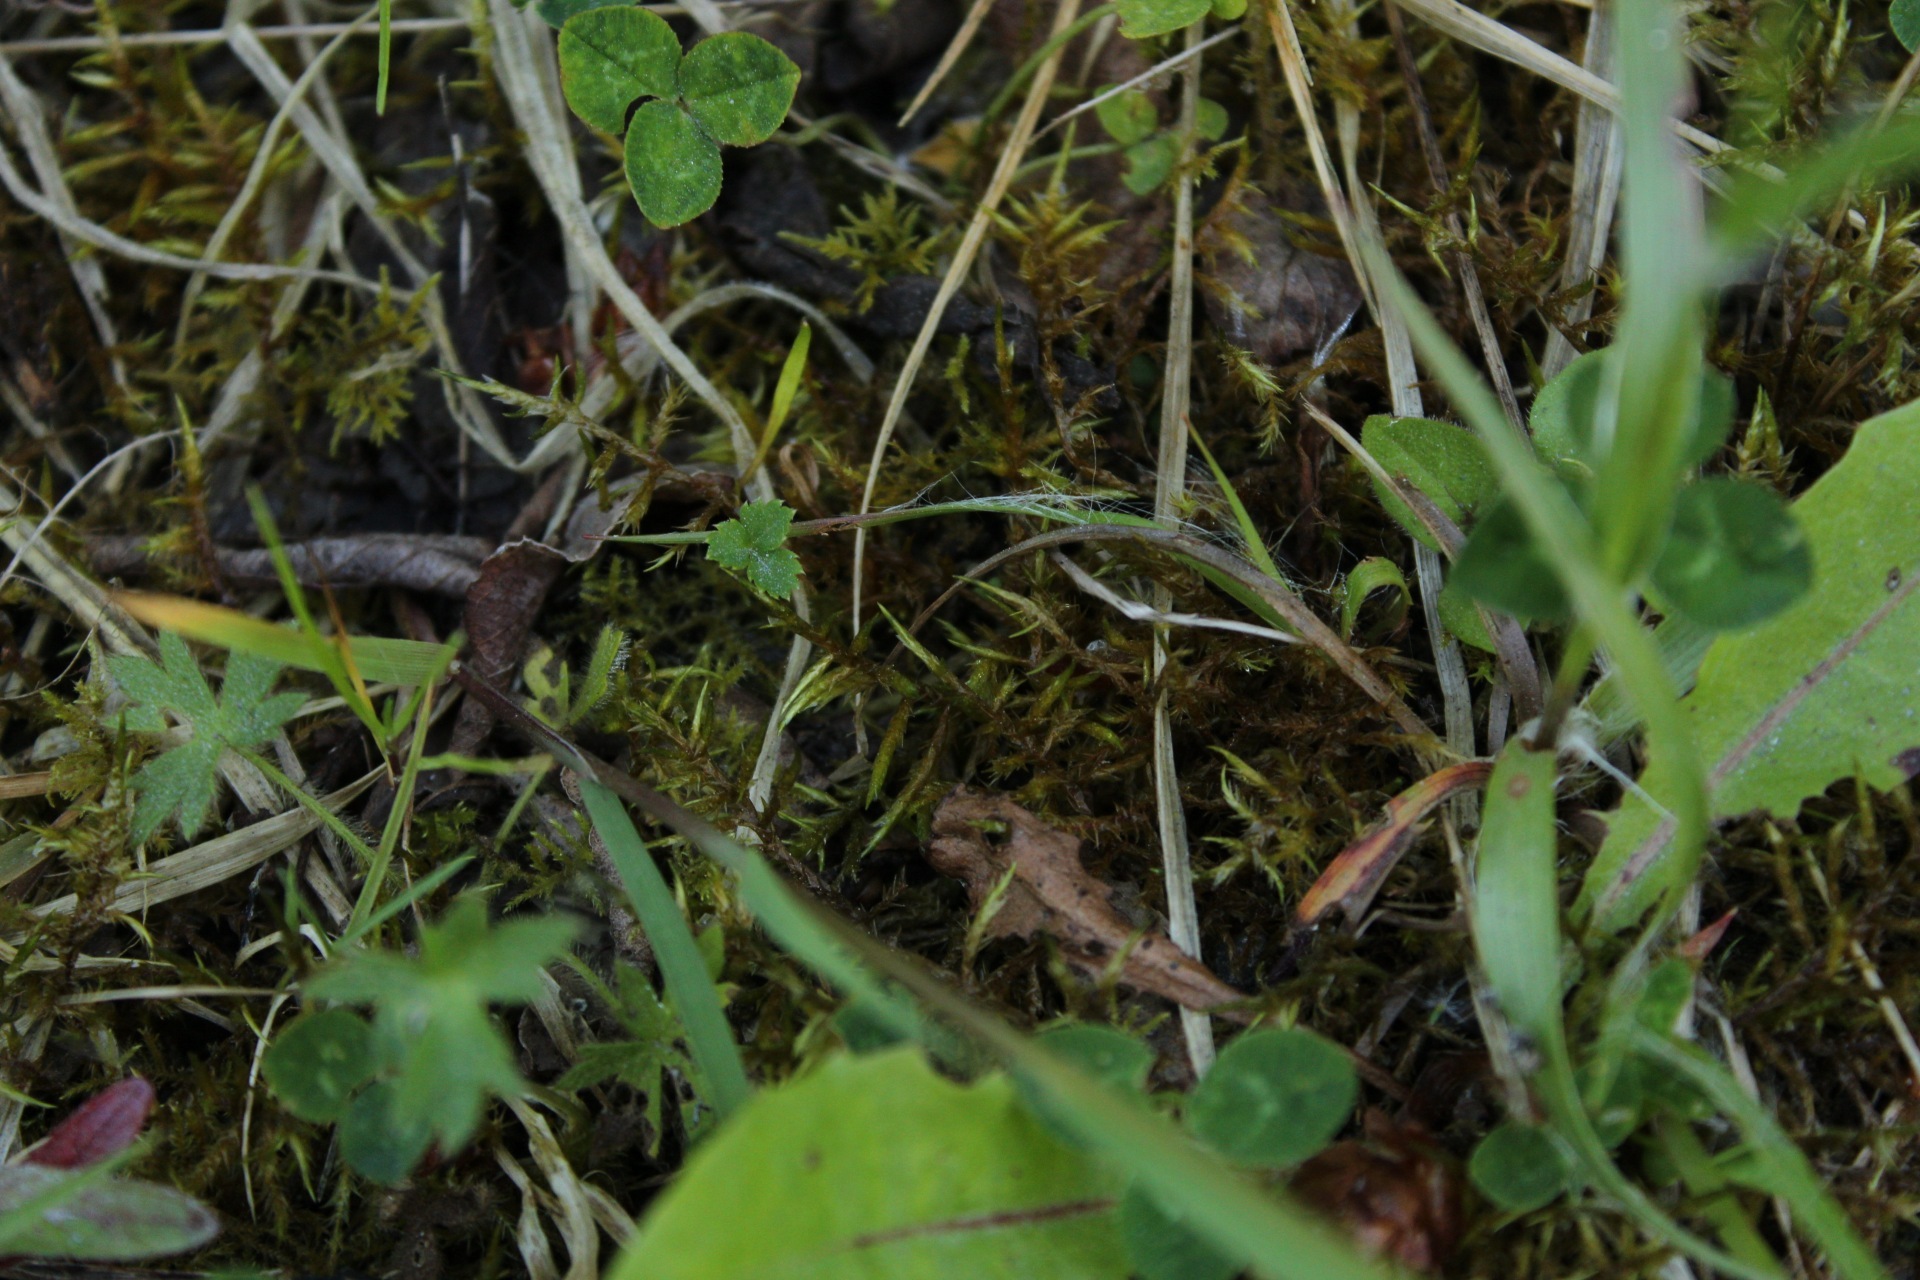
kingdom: Plantae
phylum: Bryophyta
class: Bryopsida
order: Hypnales
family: Pylaisiaceae
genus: Calliergonella
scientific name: Calliergonella cuspidata
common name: Common large wetland moss
